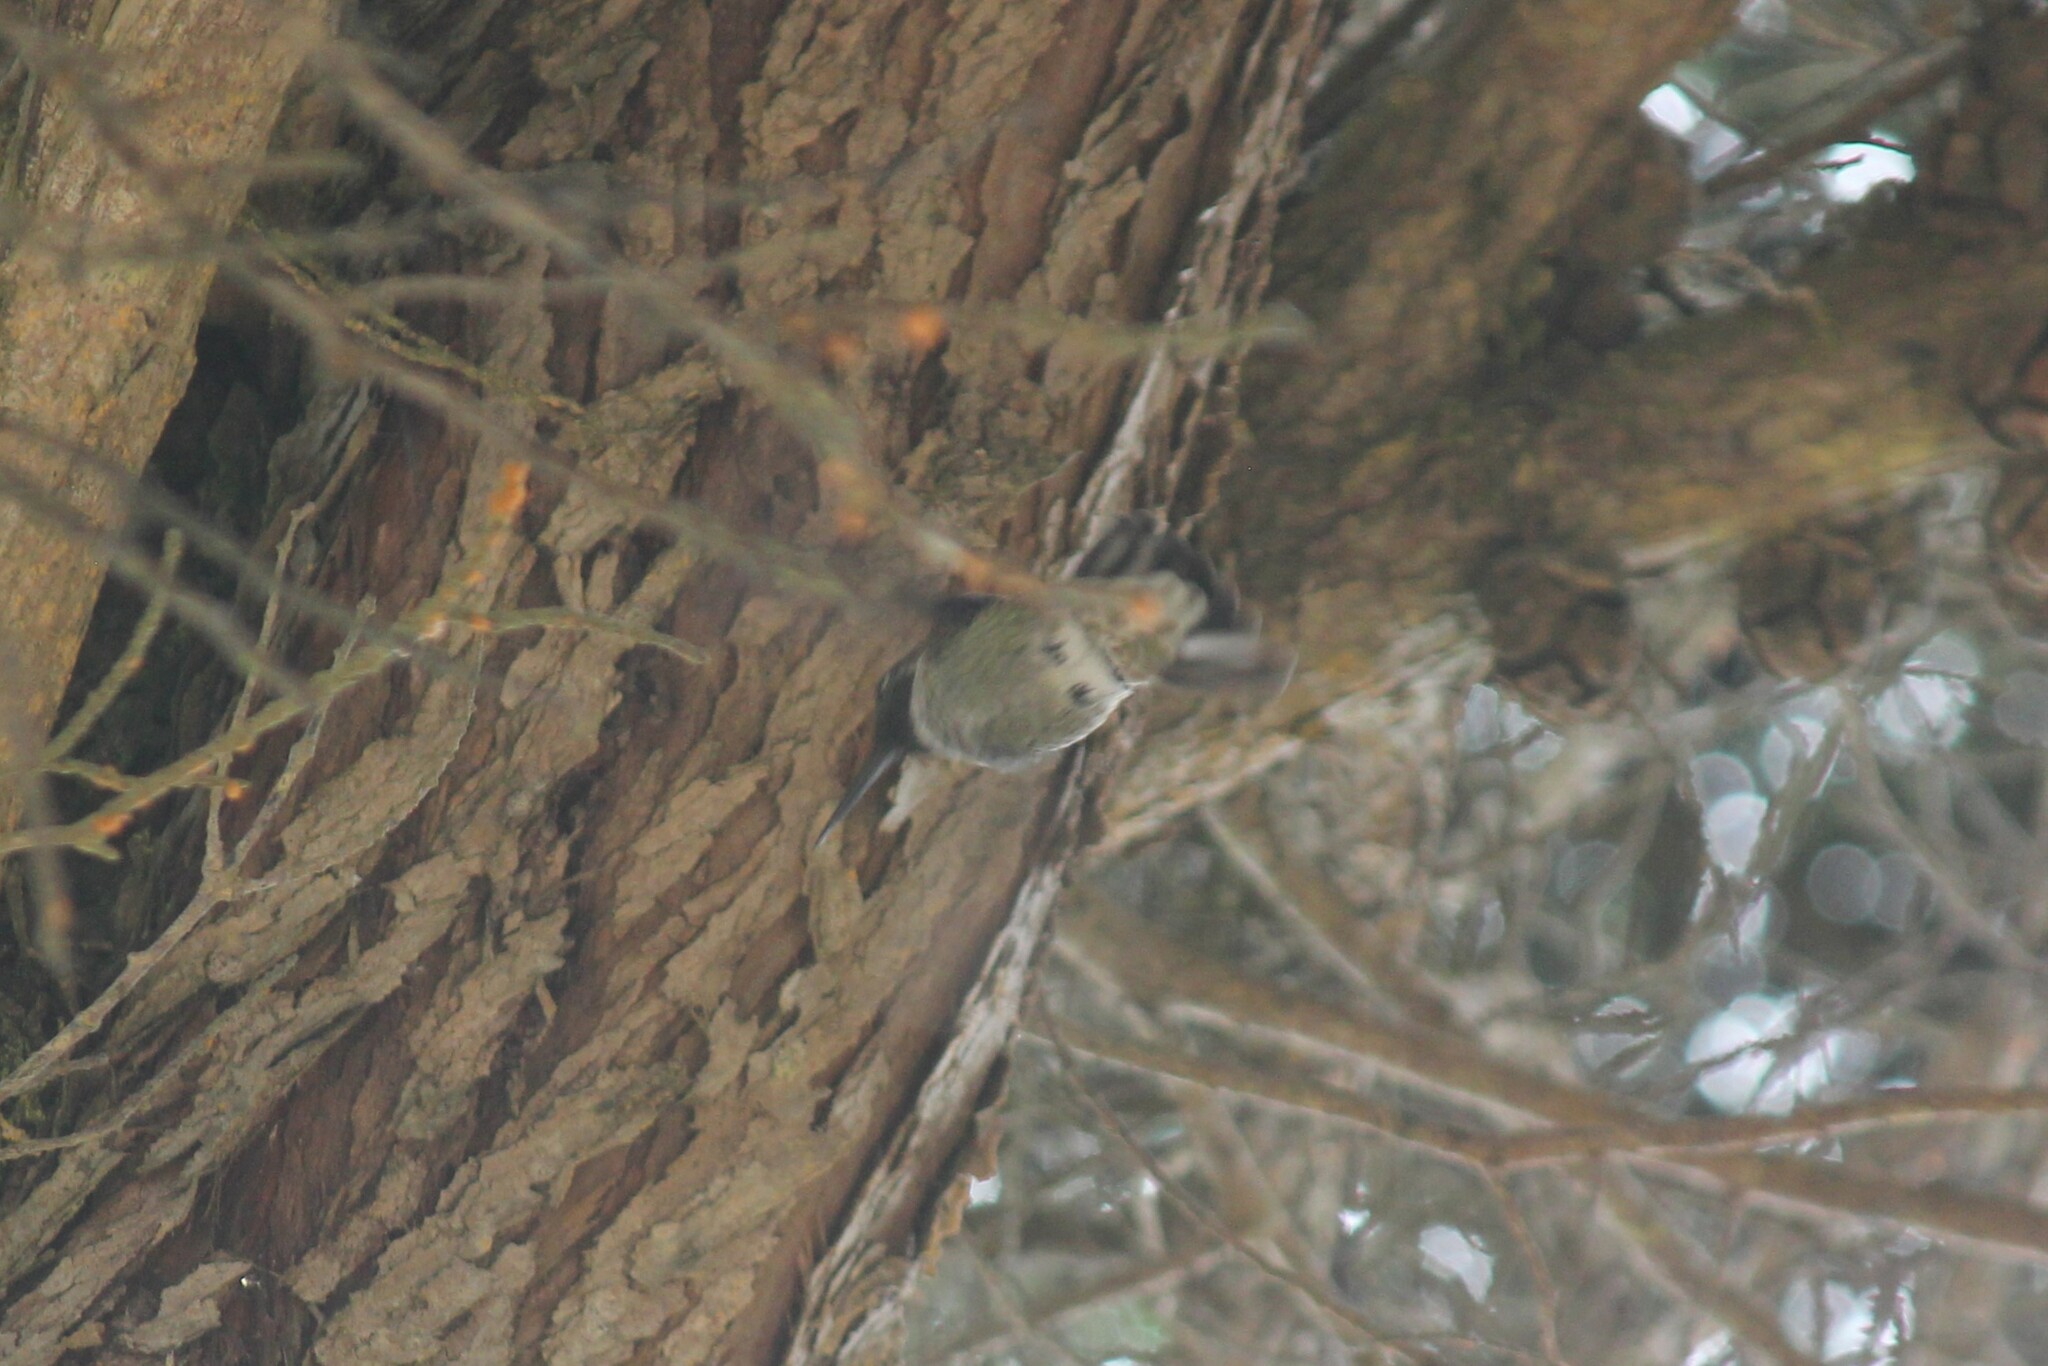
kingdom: Animalia
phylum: Chordata
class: Aves
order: Apodiformes
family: Trochilidae
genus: Calypte
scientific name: Calypte anna
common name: Anna's hummingbird
